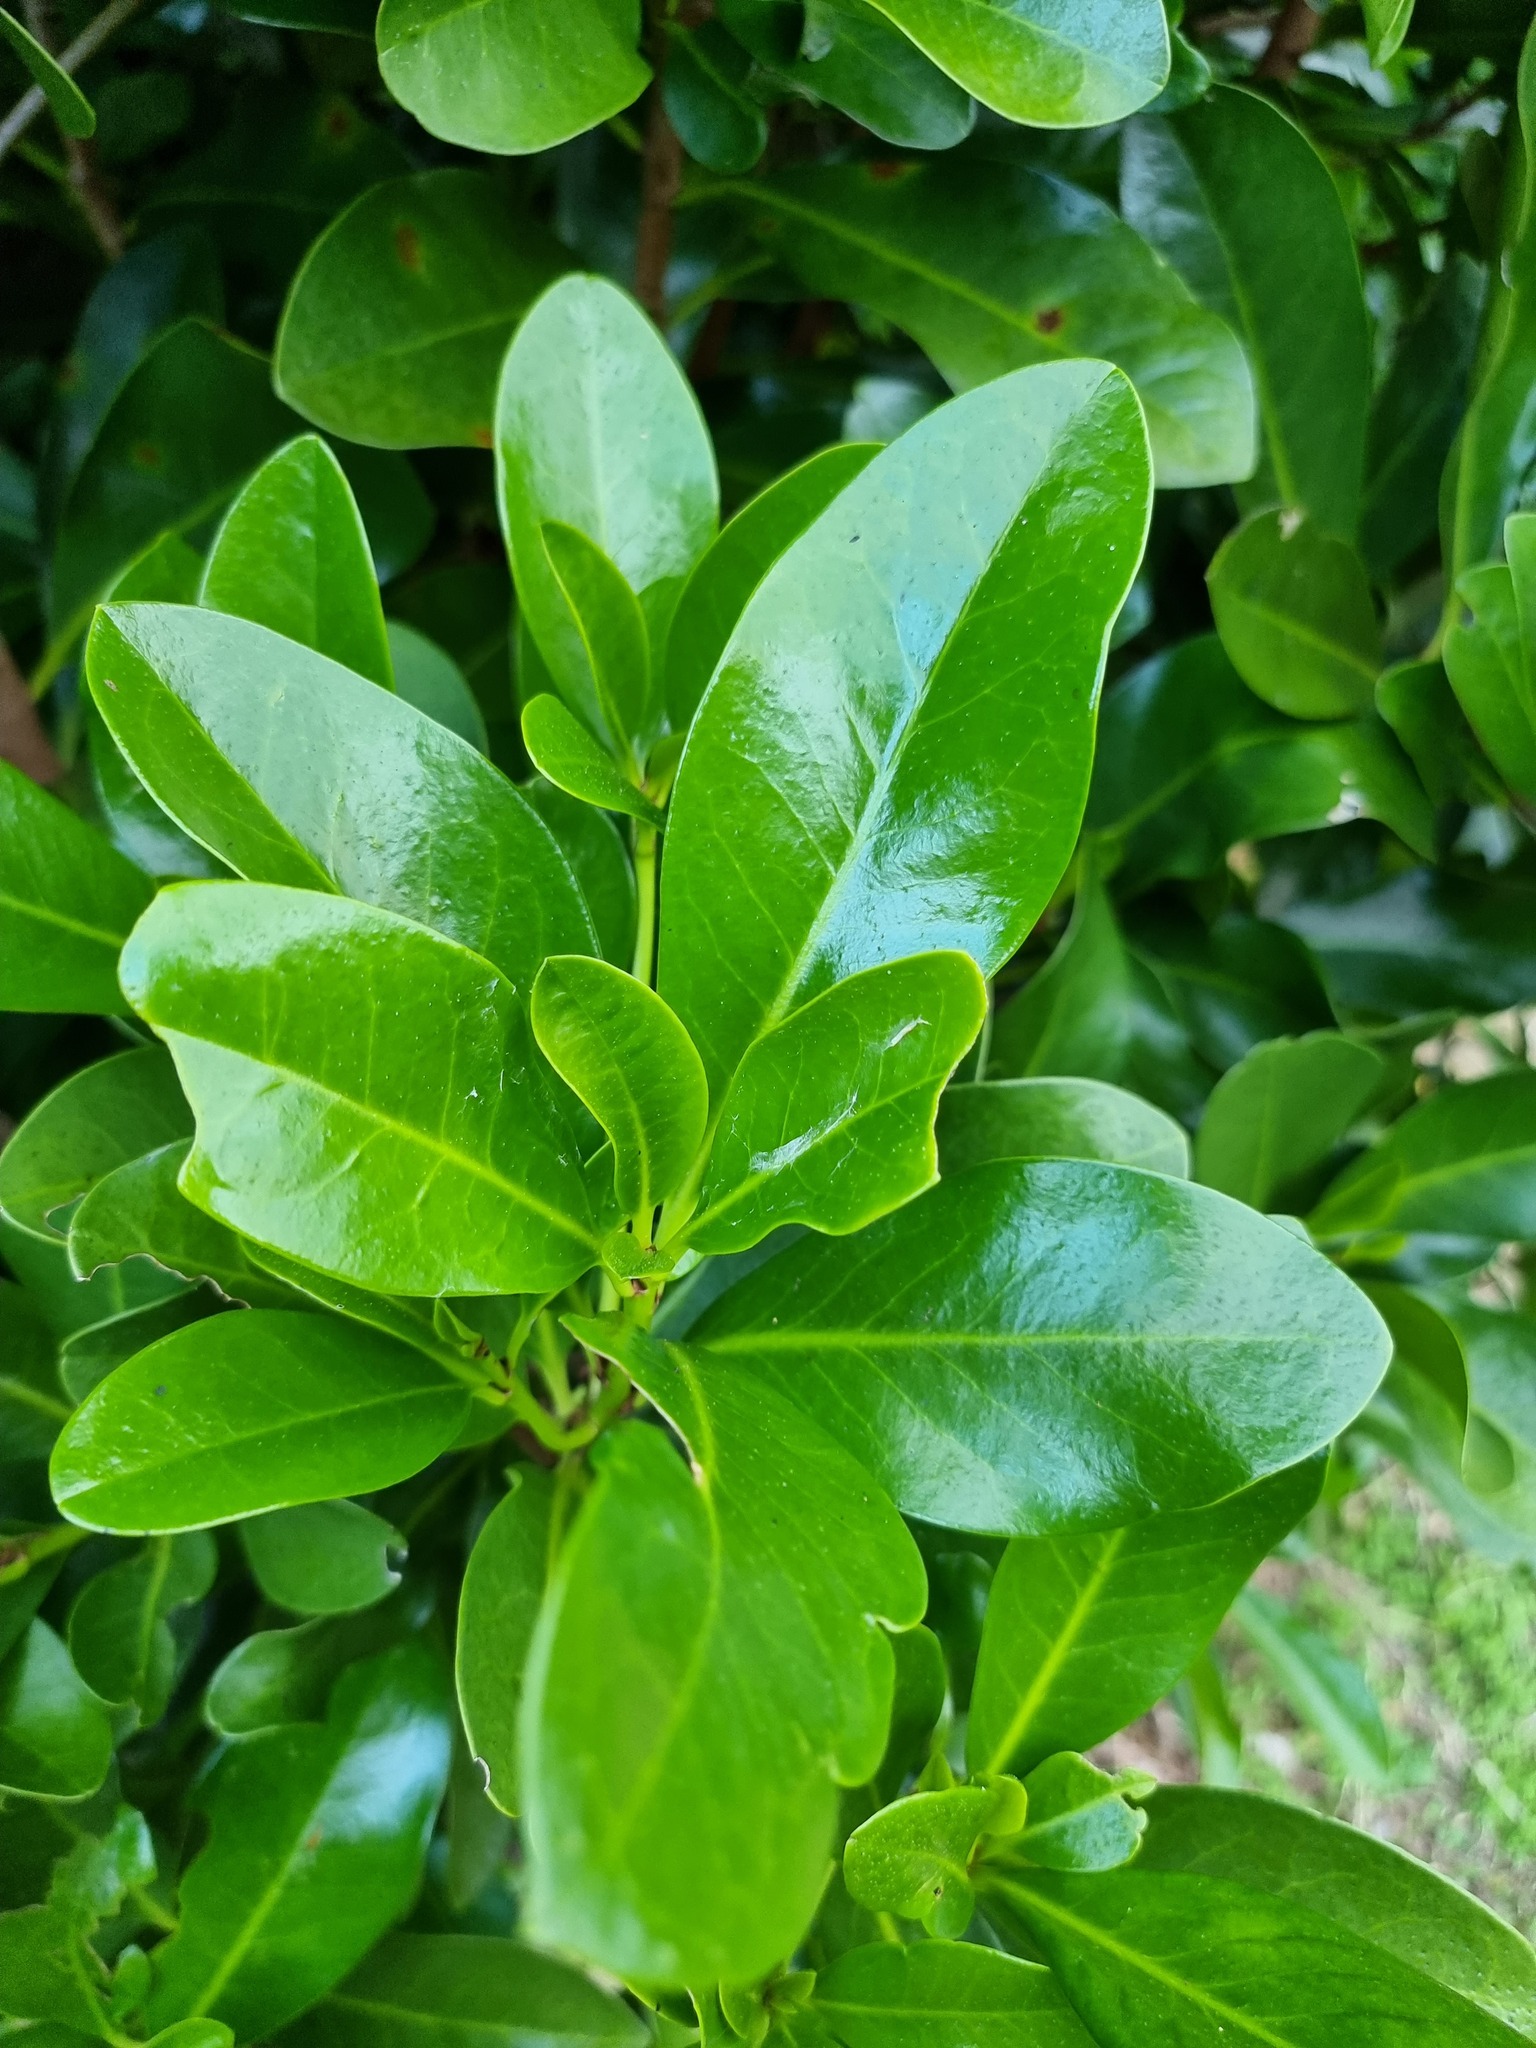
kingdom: Plantae
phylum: Tracheophyta
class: Magnoliopsida
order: Cucurbitales
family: Corynocarpaceae
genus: Corynocarpus
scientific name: Corynocarpus laevigatus
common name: New zealand laurel
